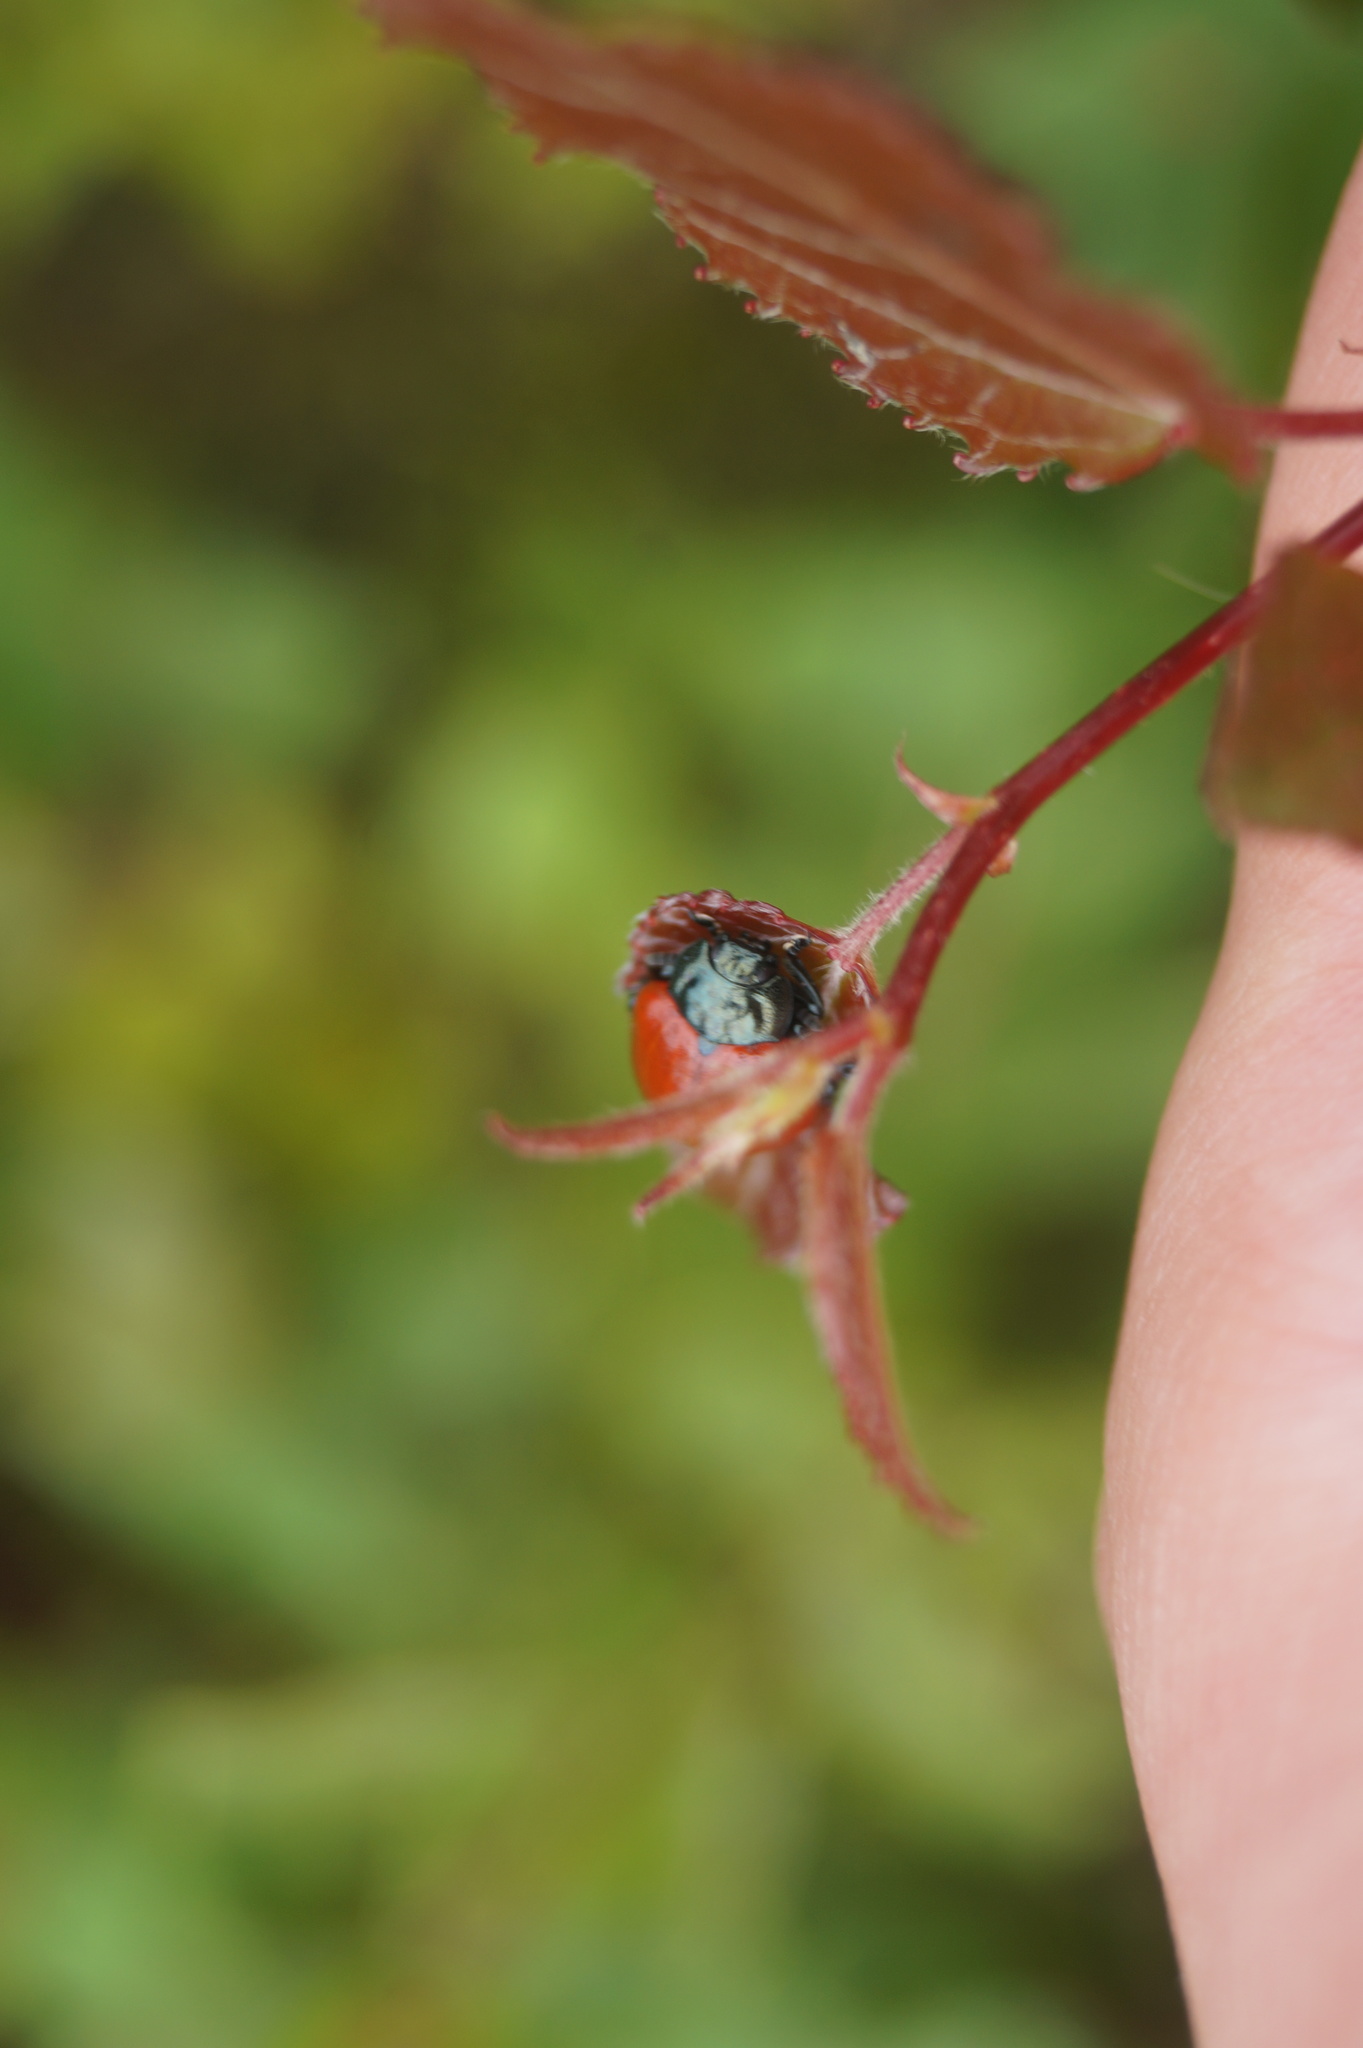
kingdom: Animalia
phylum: Arthropoda
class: Insecta
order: Coleoptera
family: Chrysomelidae
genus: Chrysomela
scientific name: Chrysomela populi
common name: Red poplar leaf beetle
